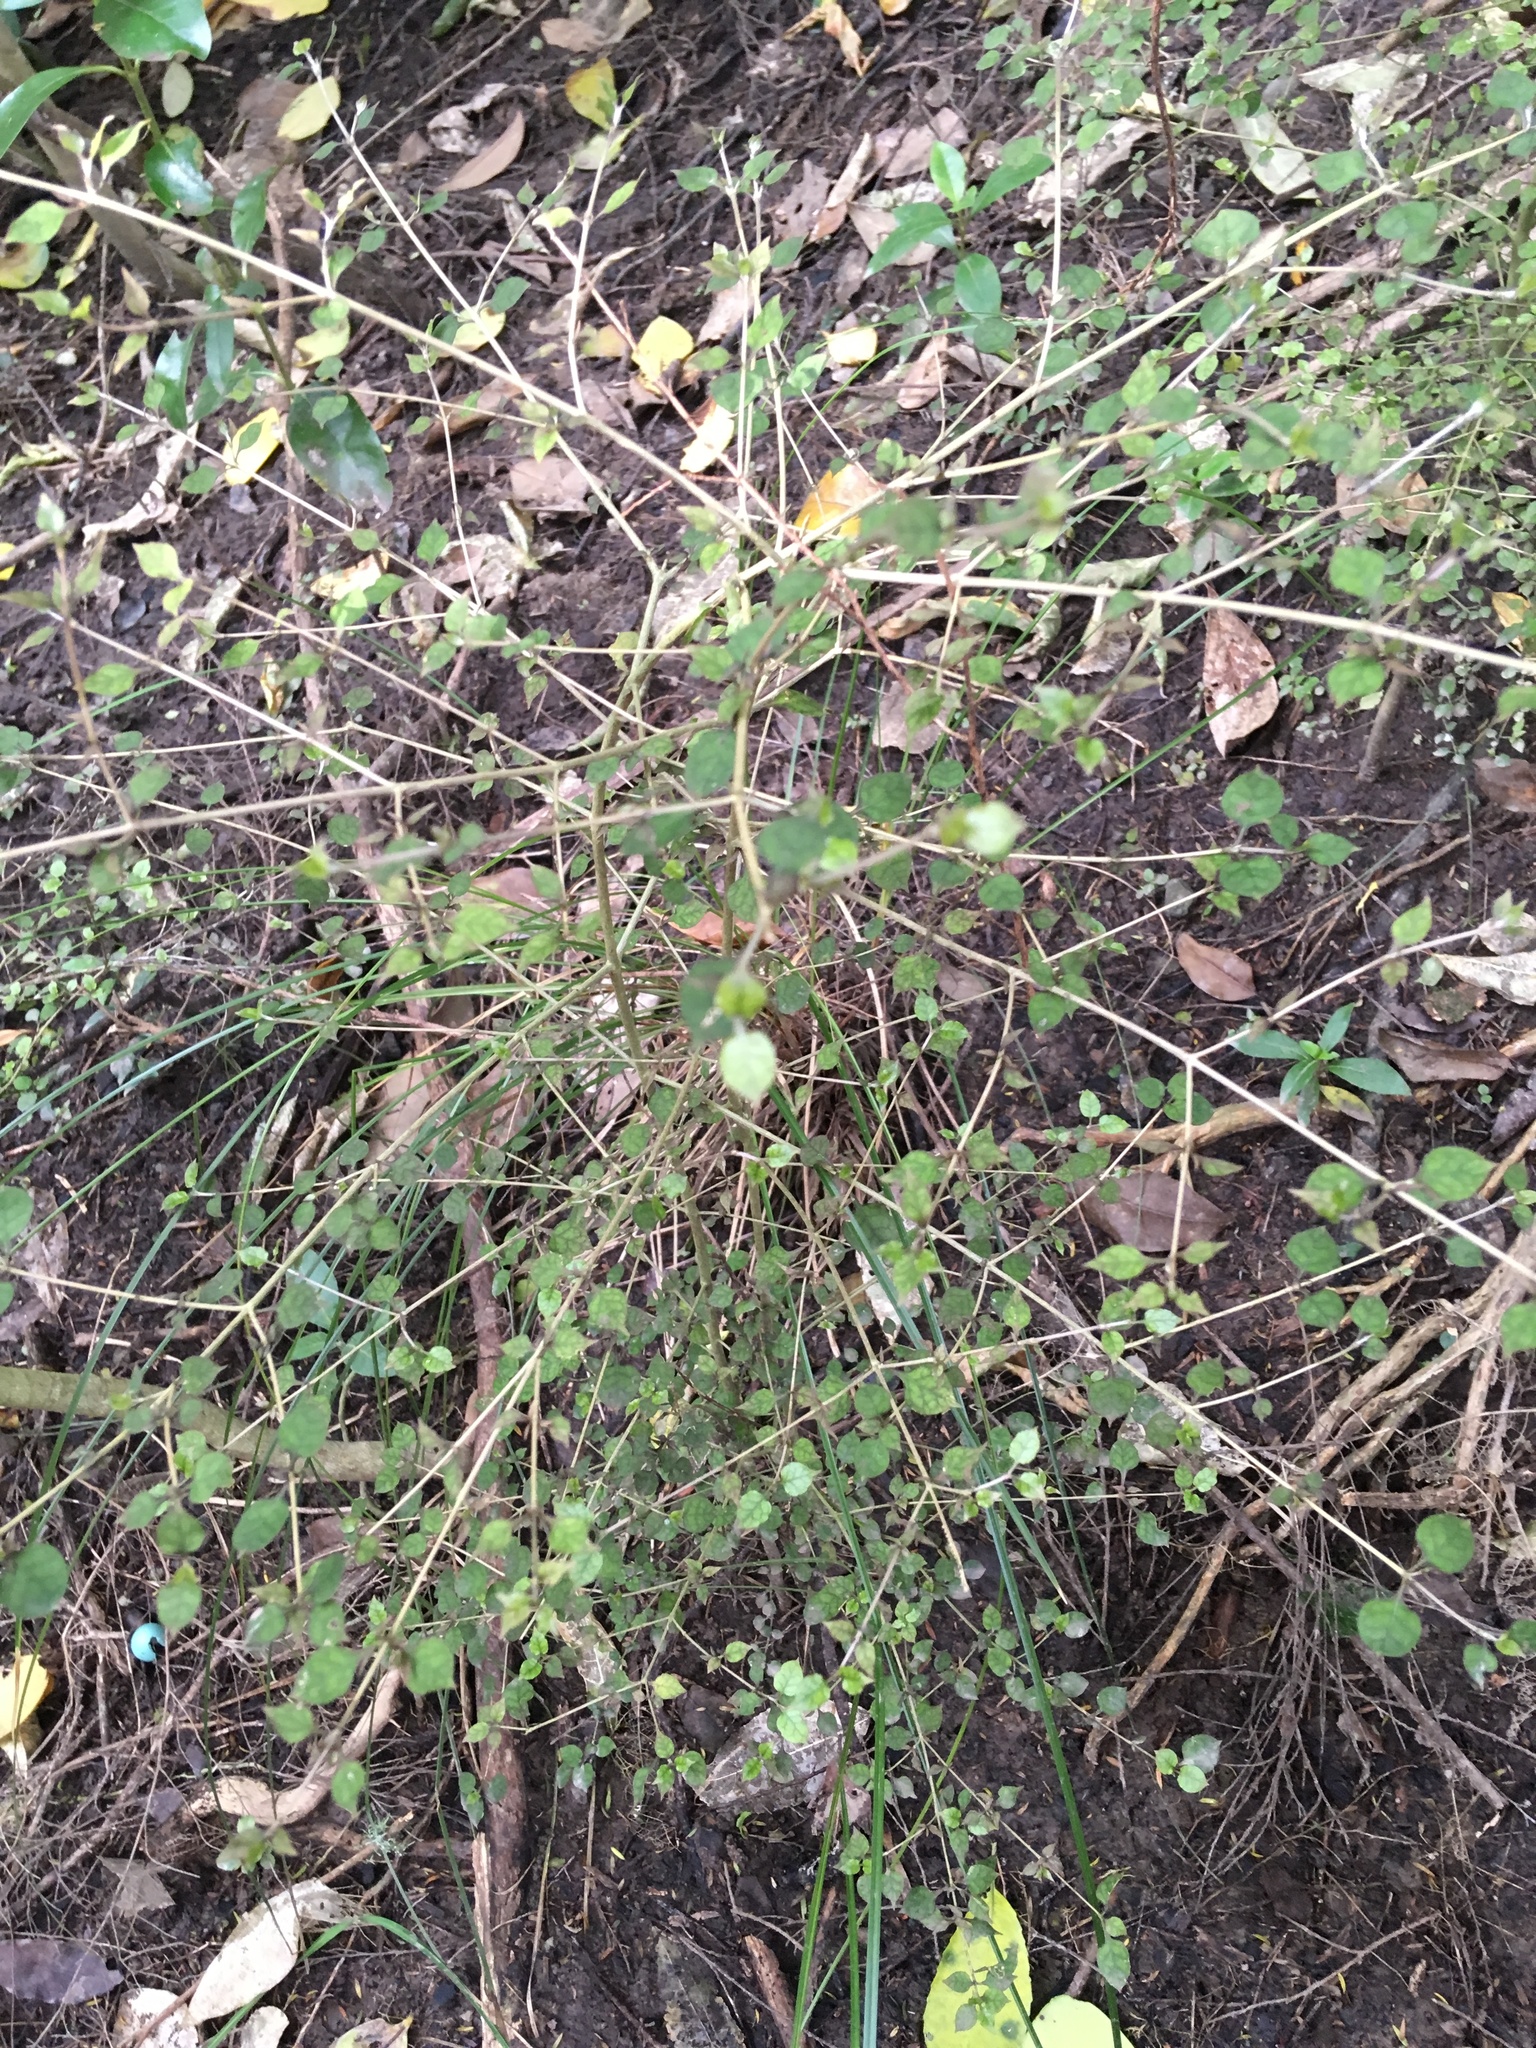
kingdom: Plantae
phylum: Tracheophyta
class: Magnoliopsida
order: Gentianales
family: Rubiaceae
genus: Coprosma
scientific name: Coprosma areolata
